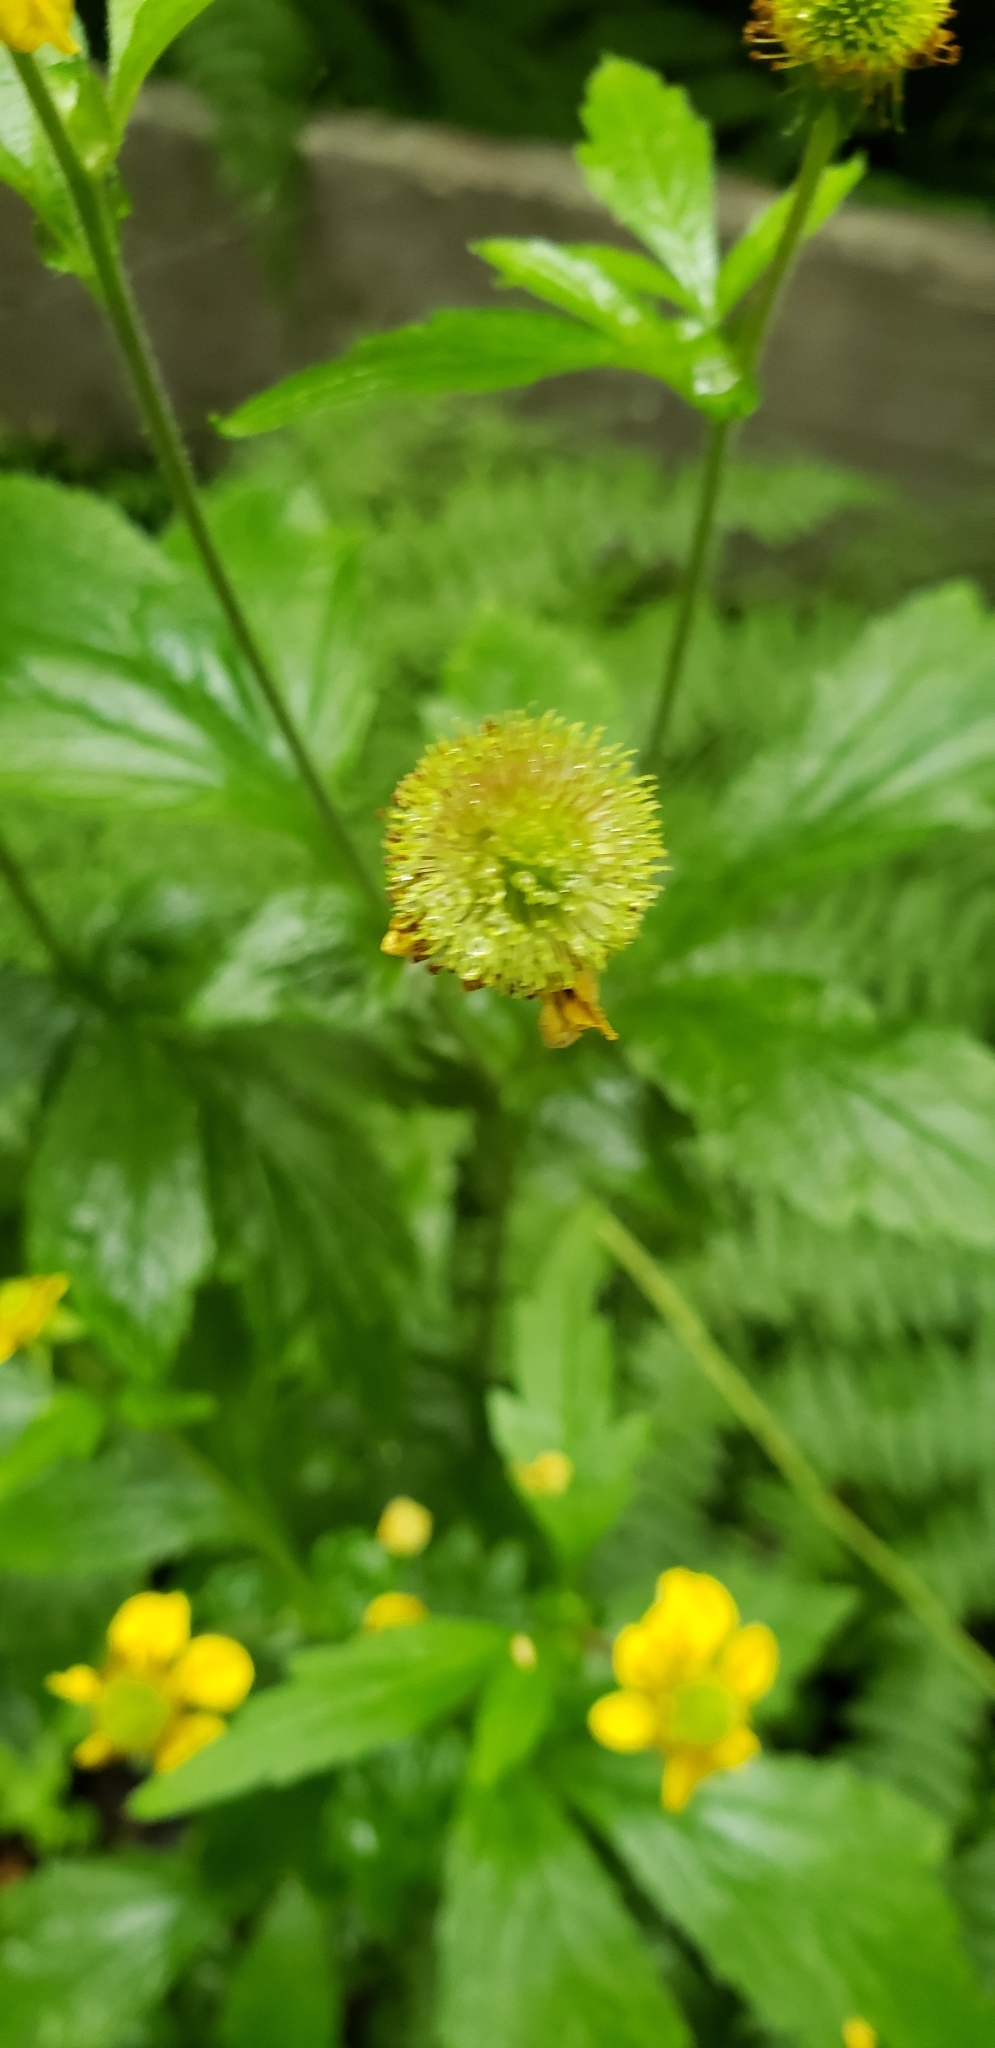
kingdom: Plantae
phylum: Tracheophyta
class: Magnoliopsida
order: Rosales
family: Rosaceae
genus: Geum
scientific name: Geum macrophyllum
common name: Large-leaved avens
